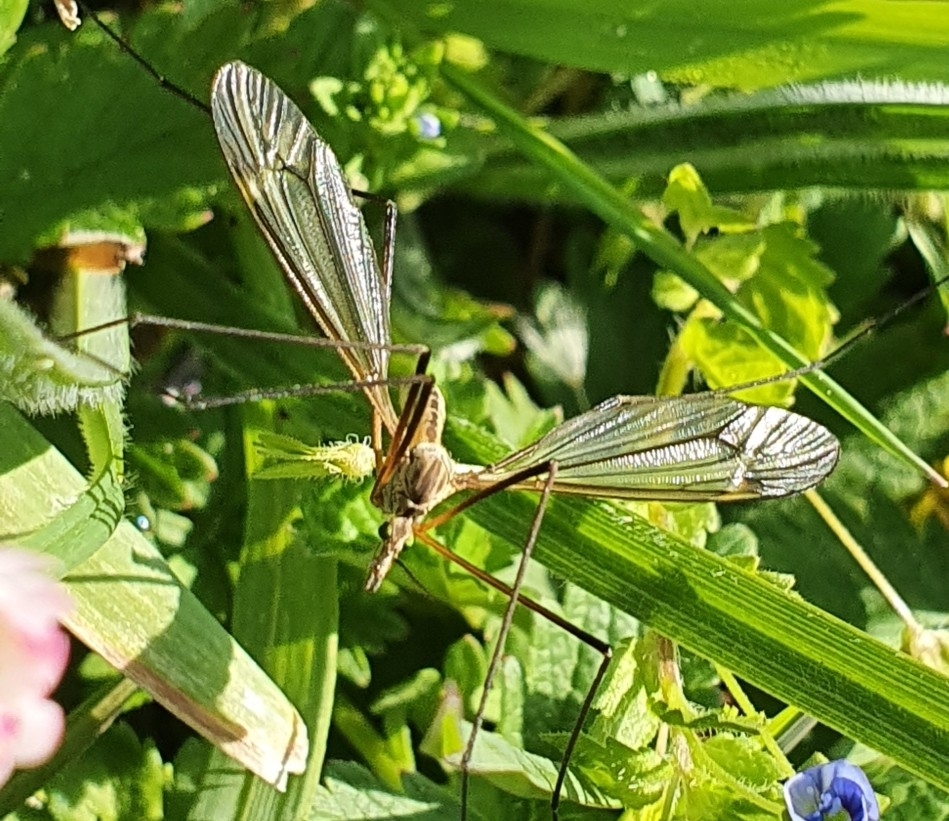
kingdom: Animalia
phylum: Arthropoda
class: Insecta
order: Diptera
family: Tipulidae
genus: Tipula
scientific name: Tipula vernalis
